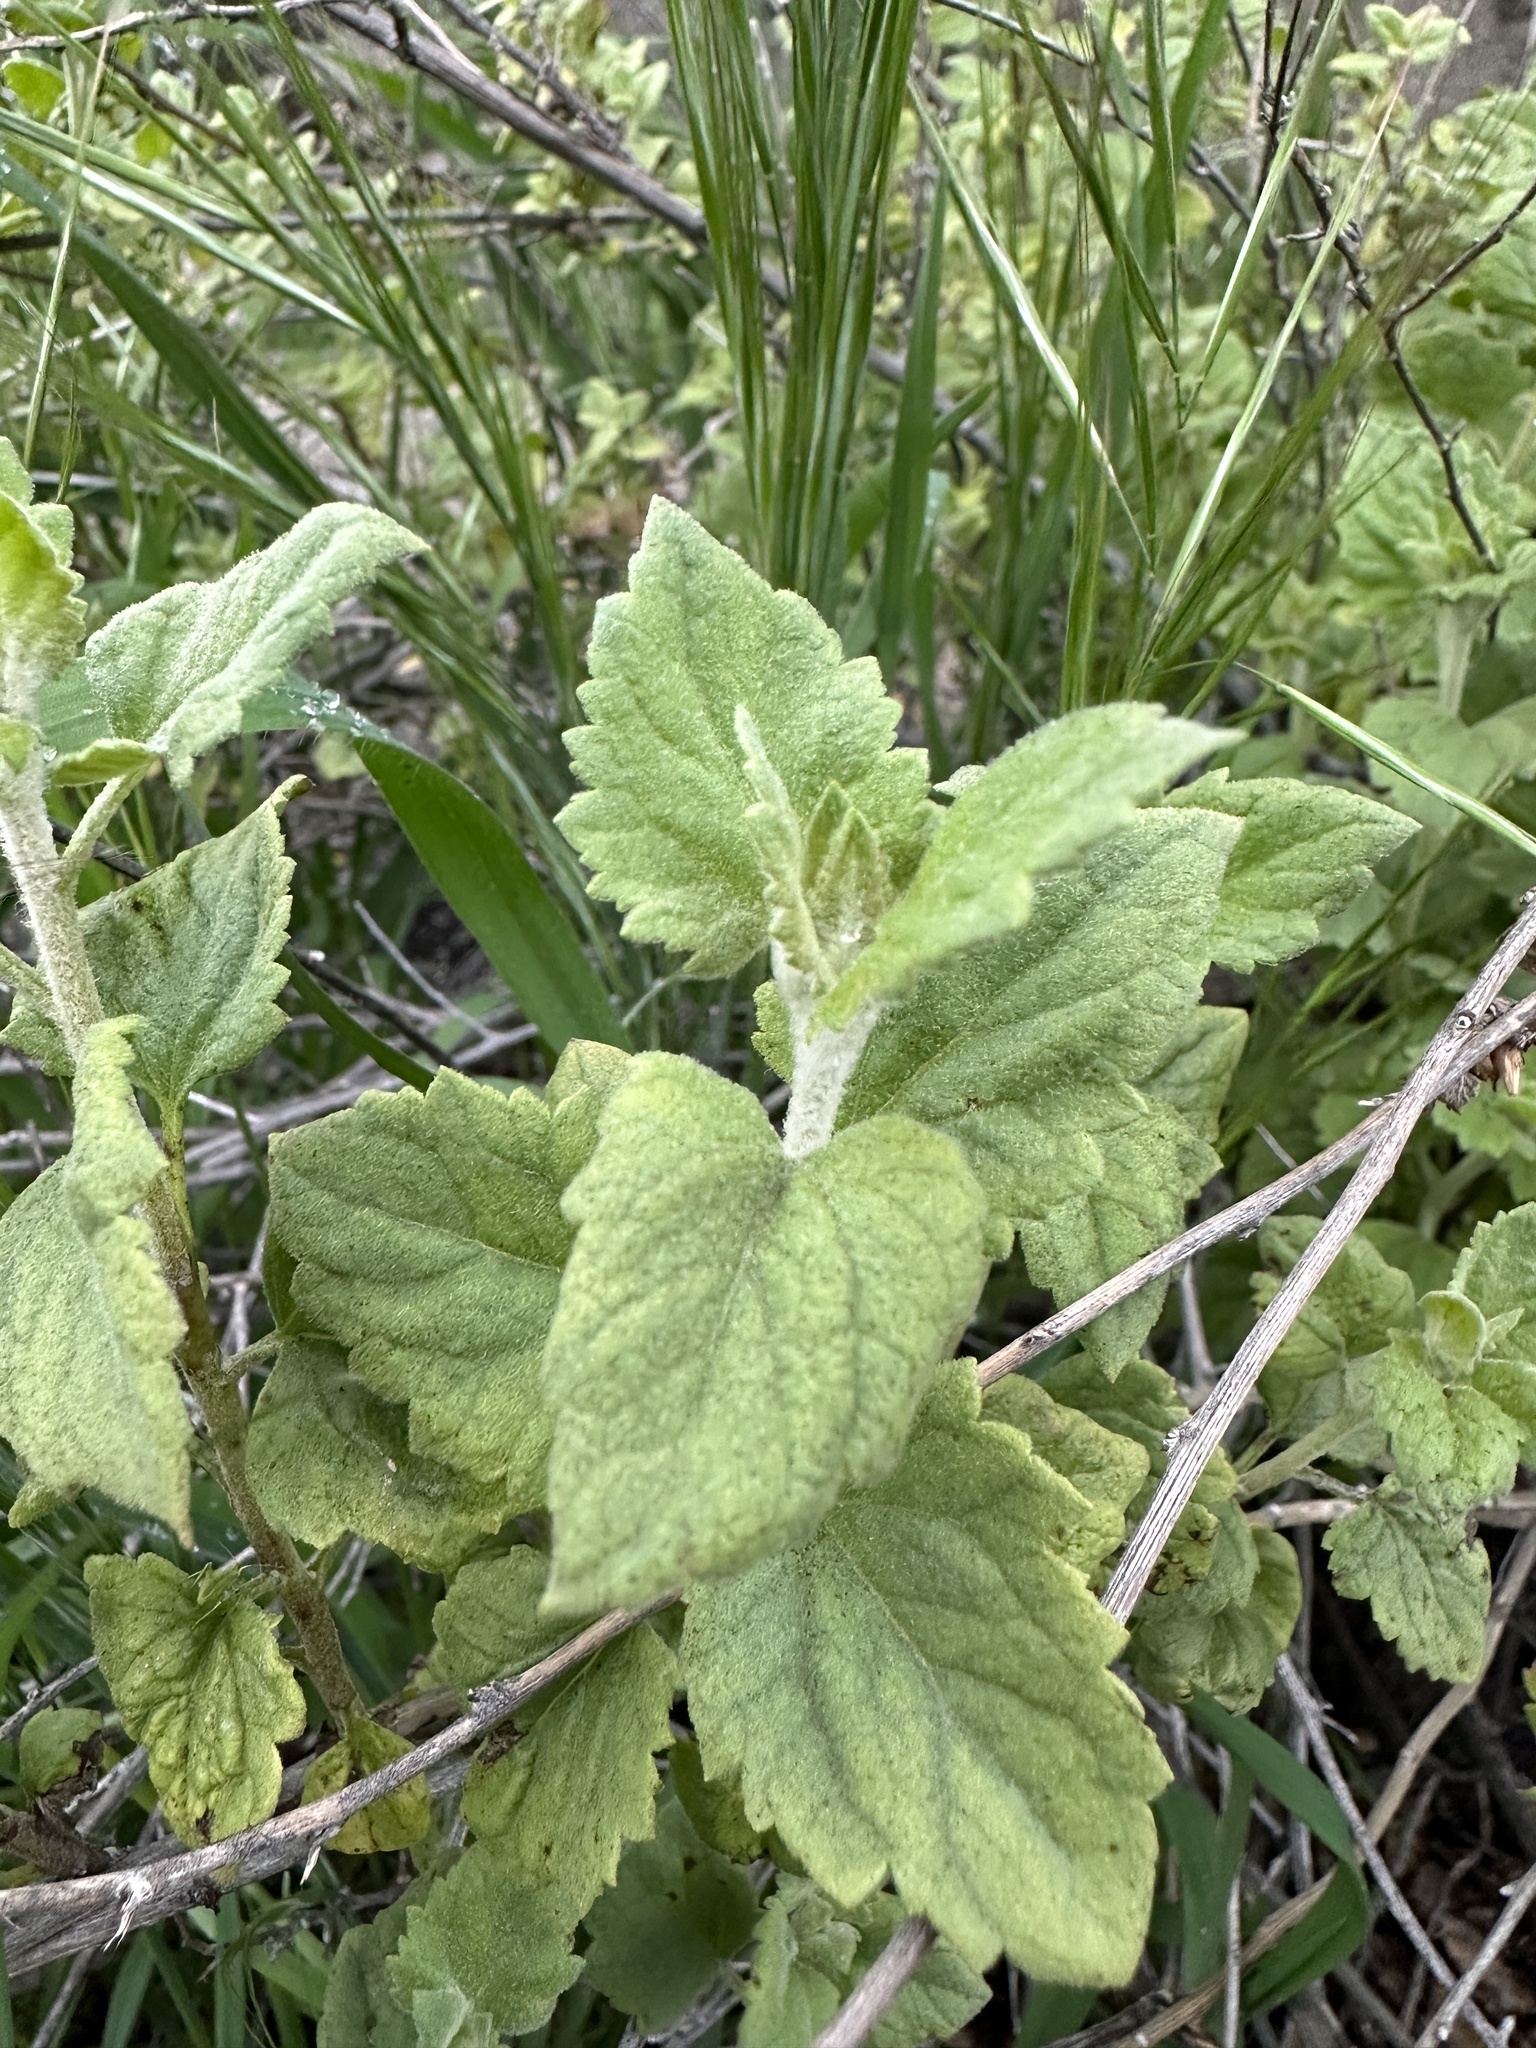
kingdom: Plantae
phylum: Tracheophyta
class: Magnoliopsida
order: Asterales
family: Asteraceae
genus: Brickellia
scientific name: Brickellia californica
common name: California brickellbush
